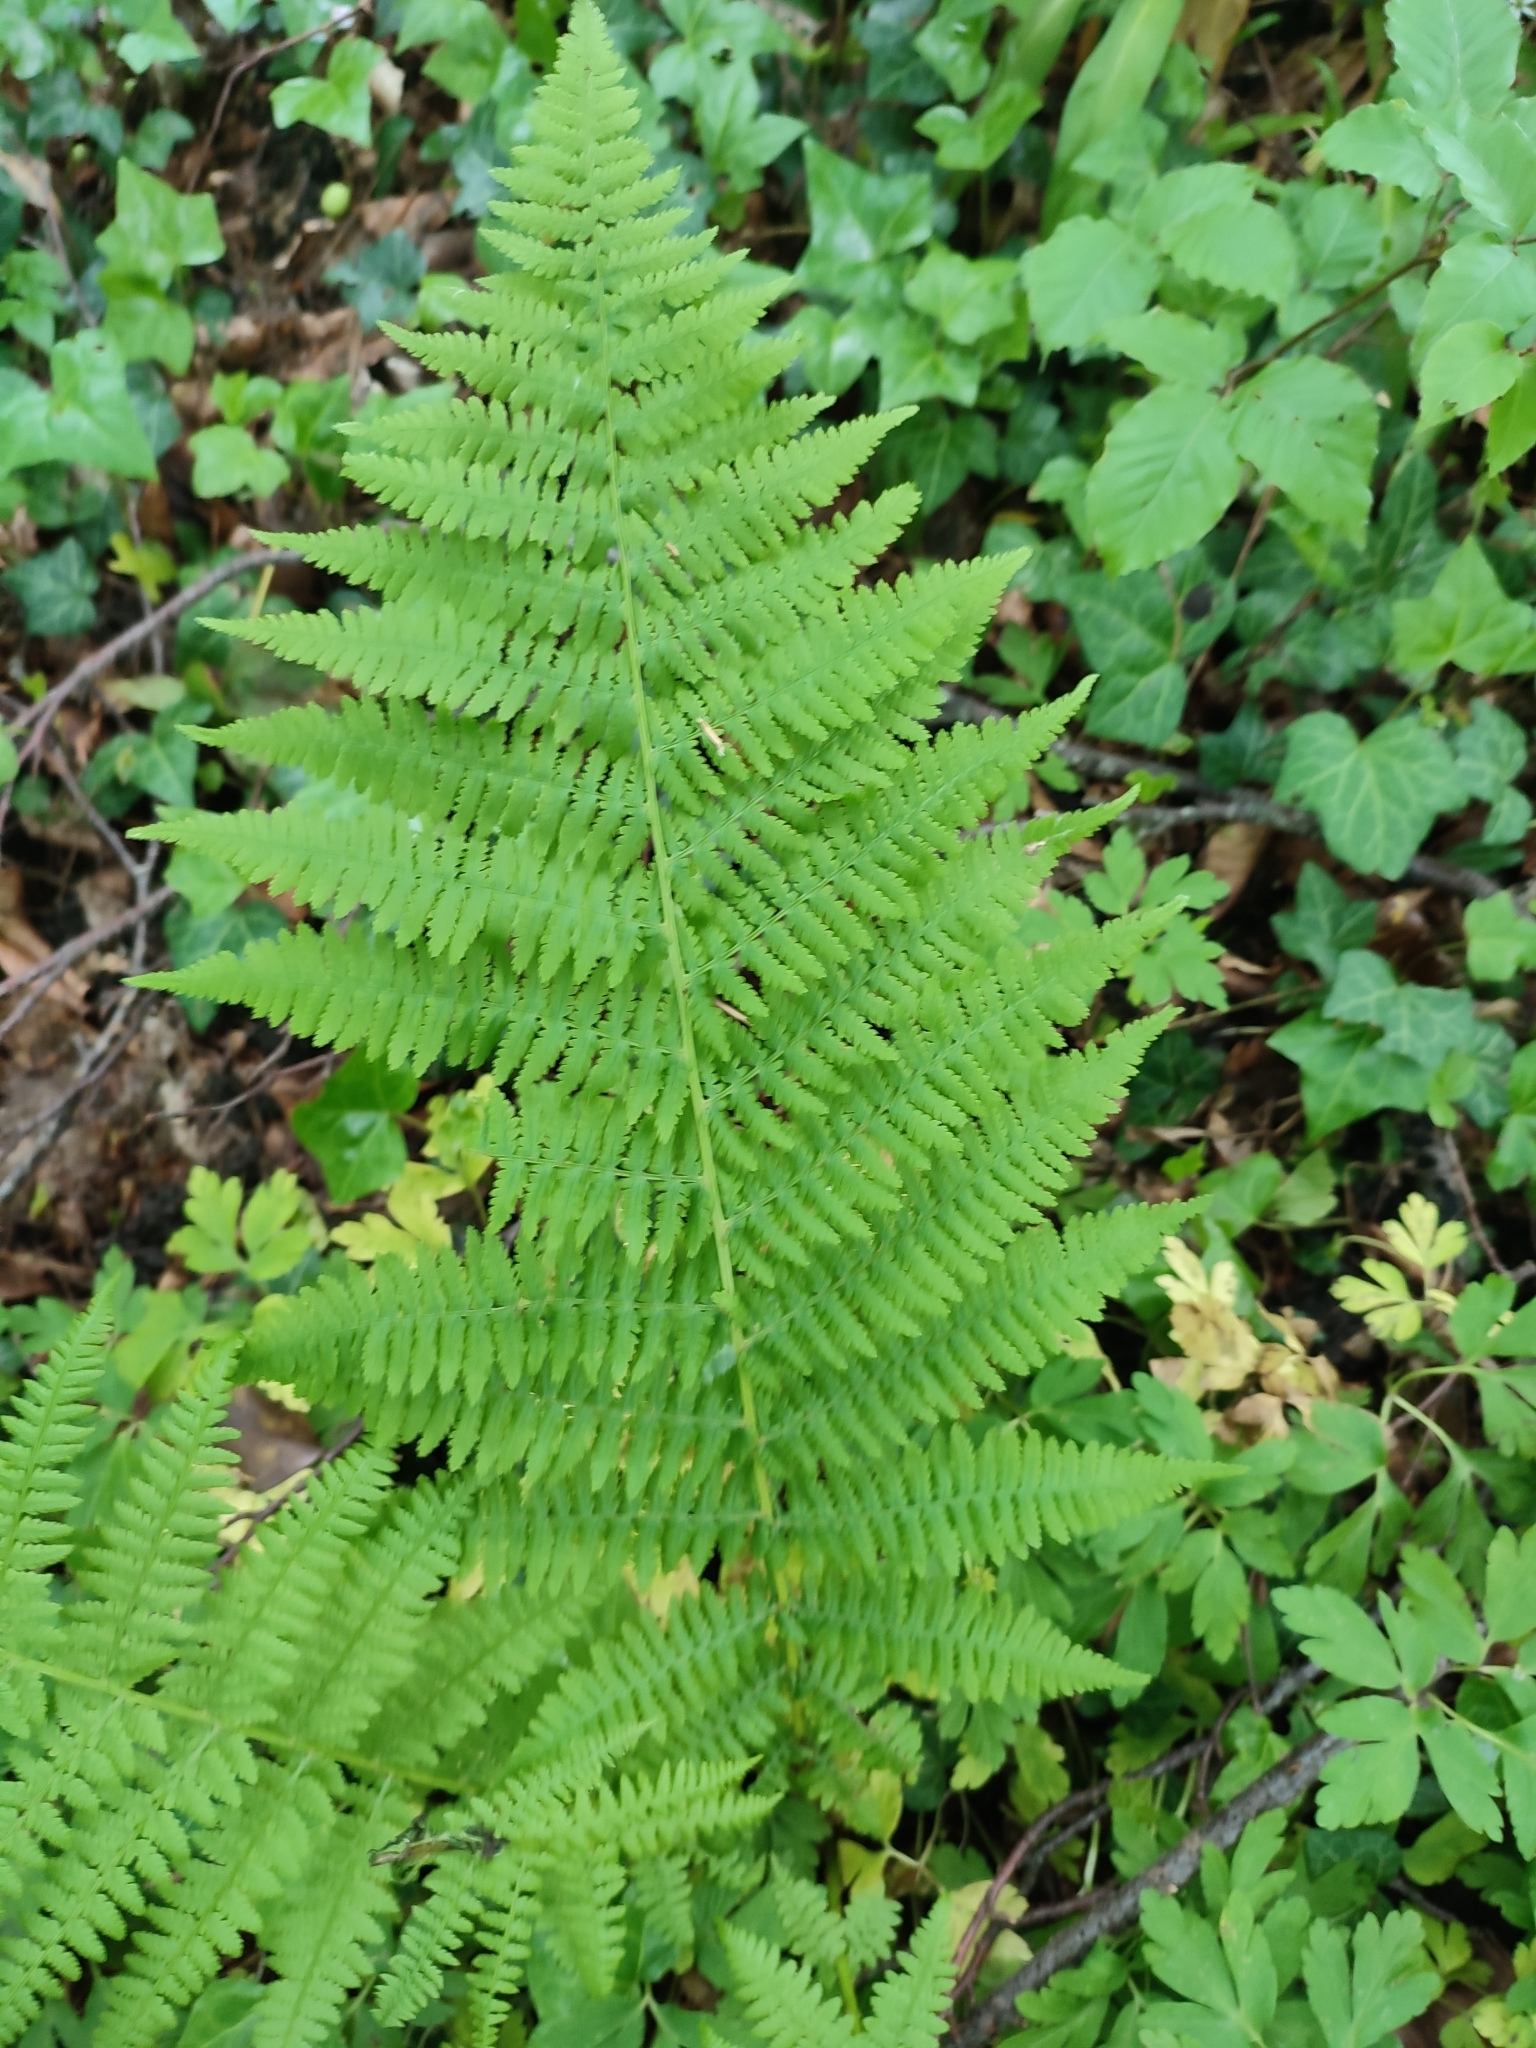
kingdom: Plantae
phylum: Tracheophyta
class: Polypodiopsida
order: Polypodiales
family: Athyriaceae
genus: Athyrium
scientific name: Athyrium filix-femina
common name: Lady fern
